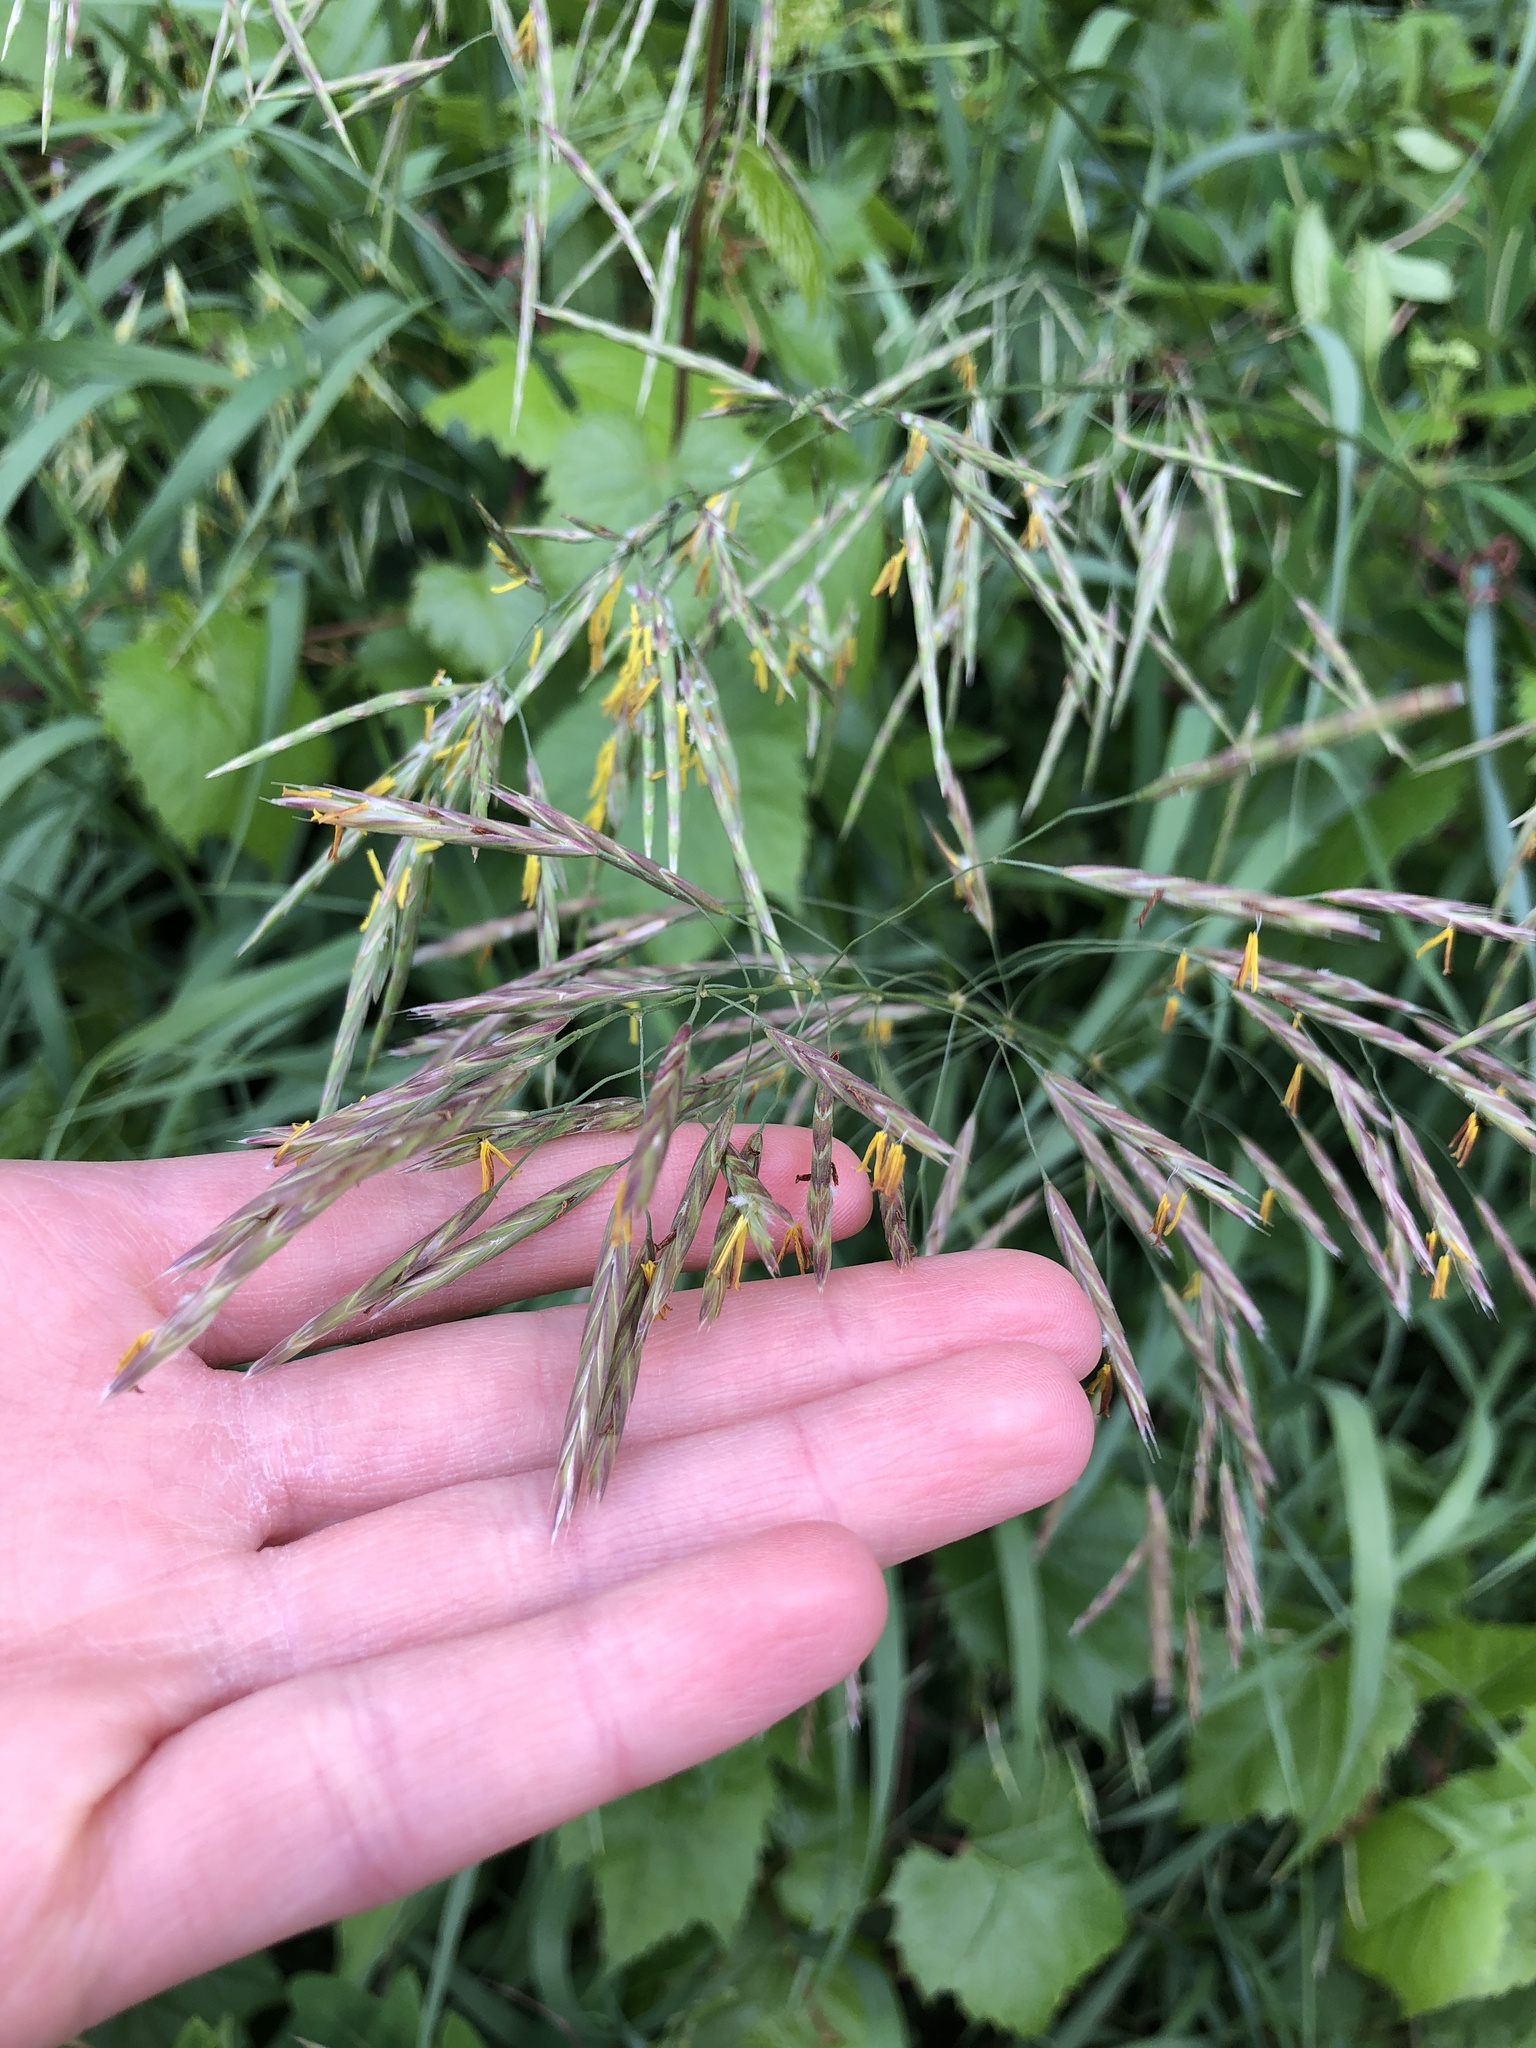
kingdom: Plantae
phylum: Tracheophyta
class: Liliopsida
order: Poales
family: Poaceae
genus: Bromus
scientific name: Bromus inermis
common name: Smooth brome
